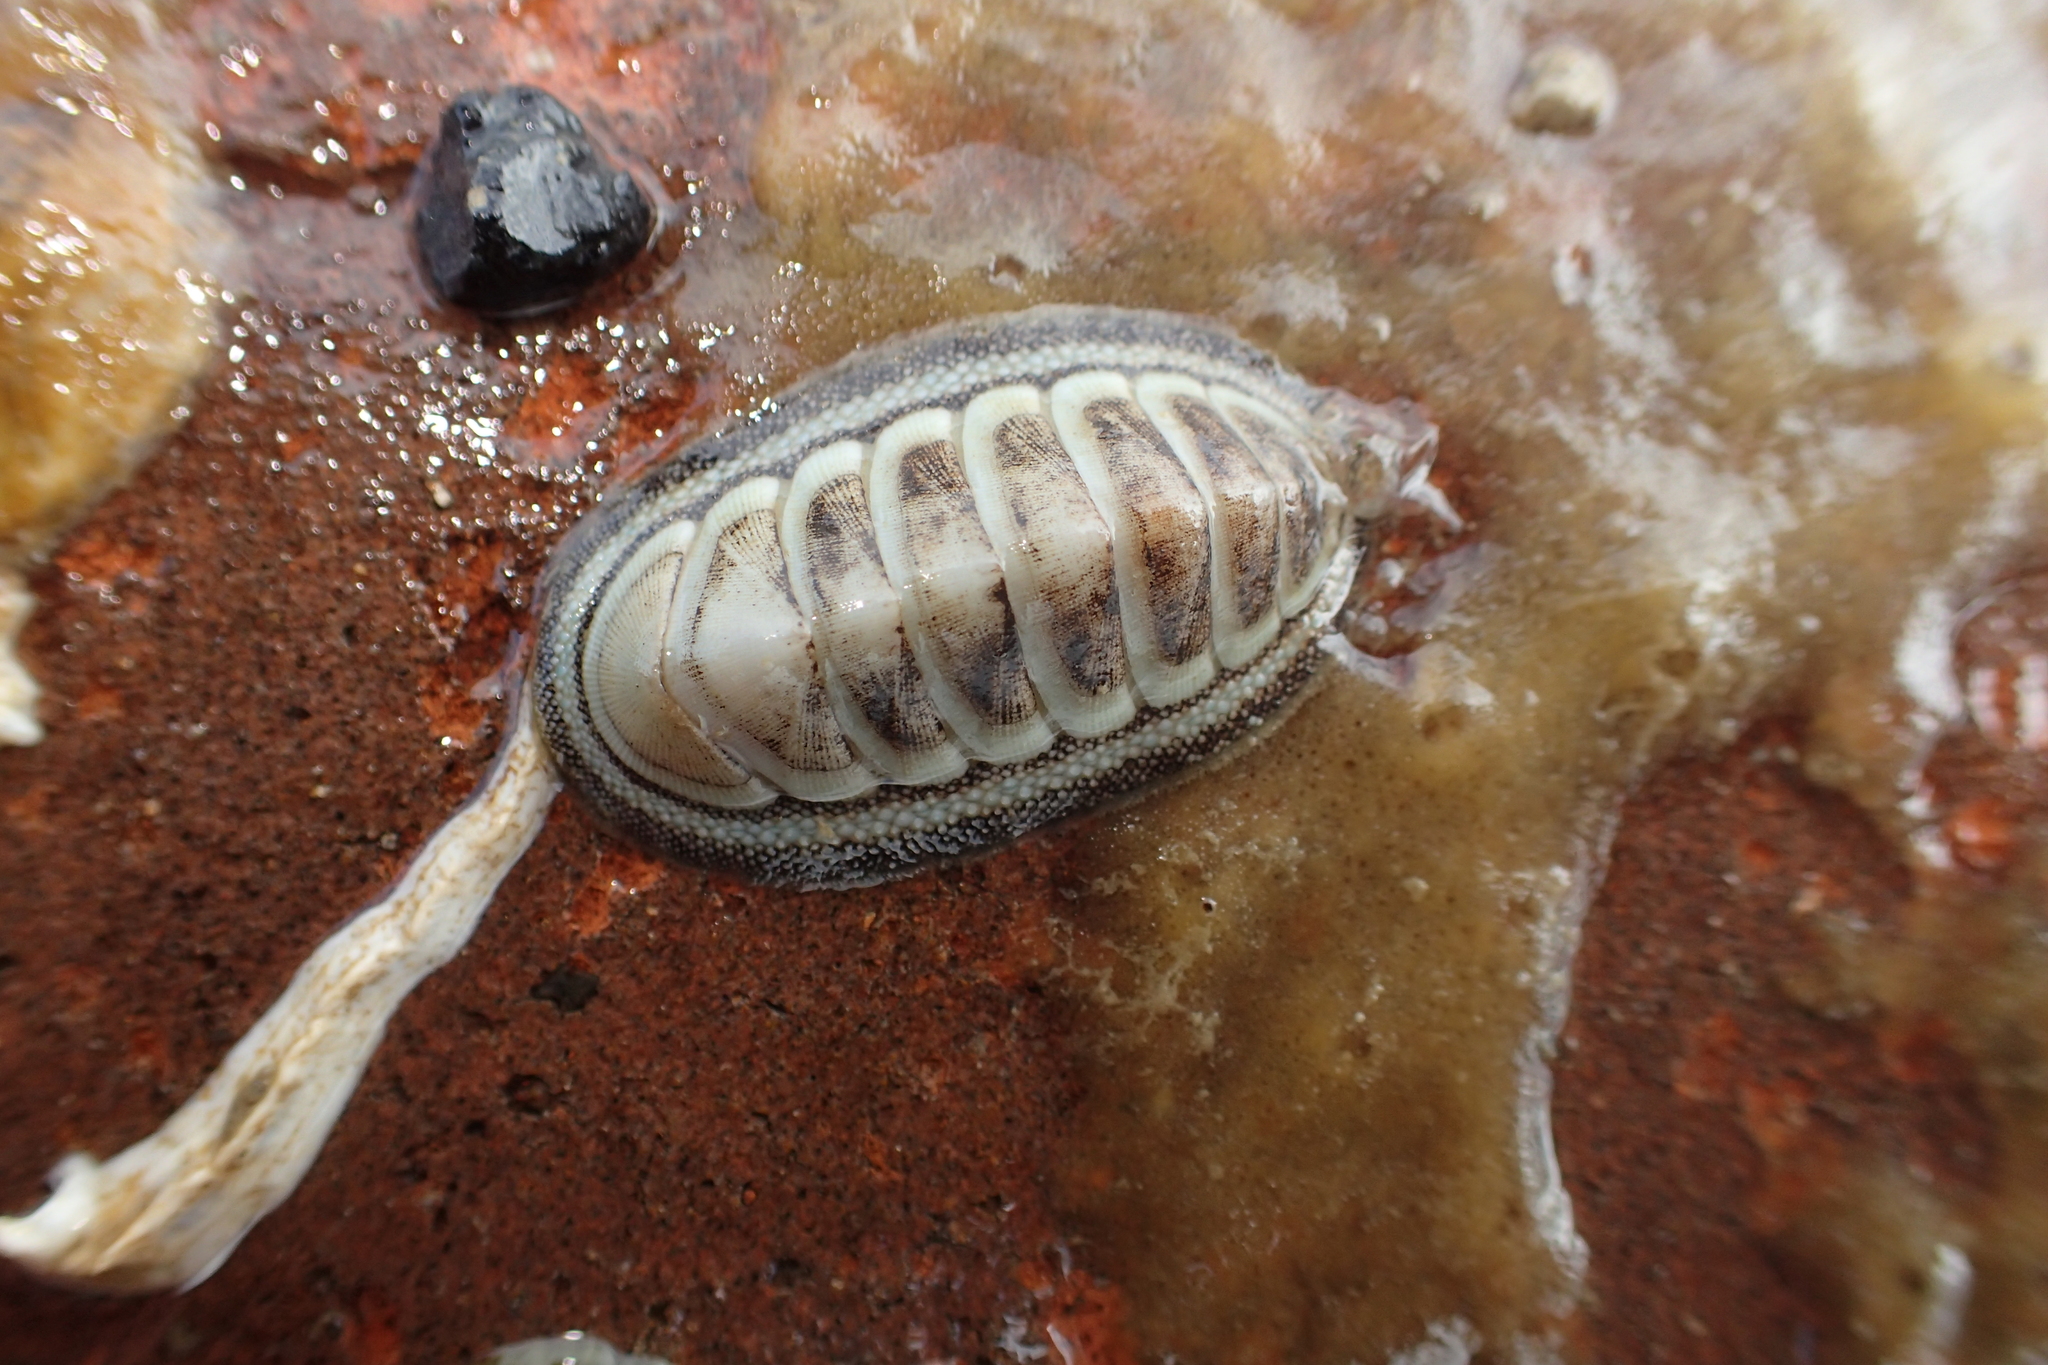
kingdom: Animalia
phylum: Mollusca
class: Polyplacophora
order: Chitonida
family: Chitonidae
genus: Chiton
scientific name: Chiton glaucus
